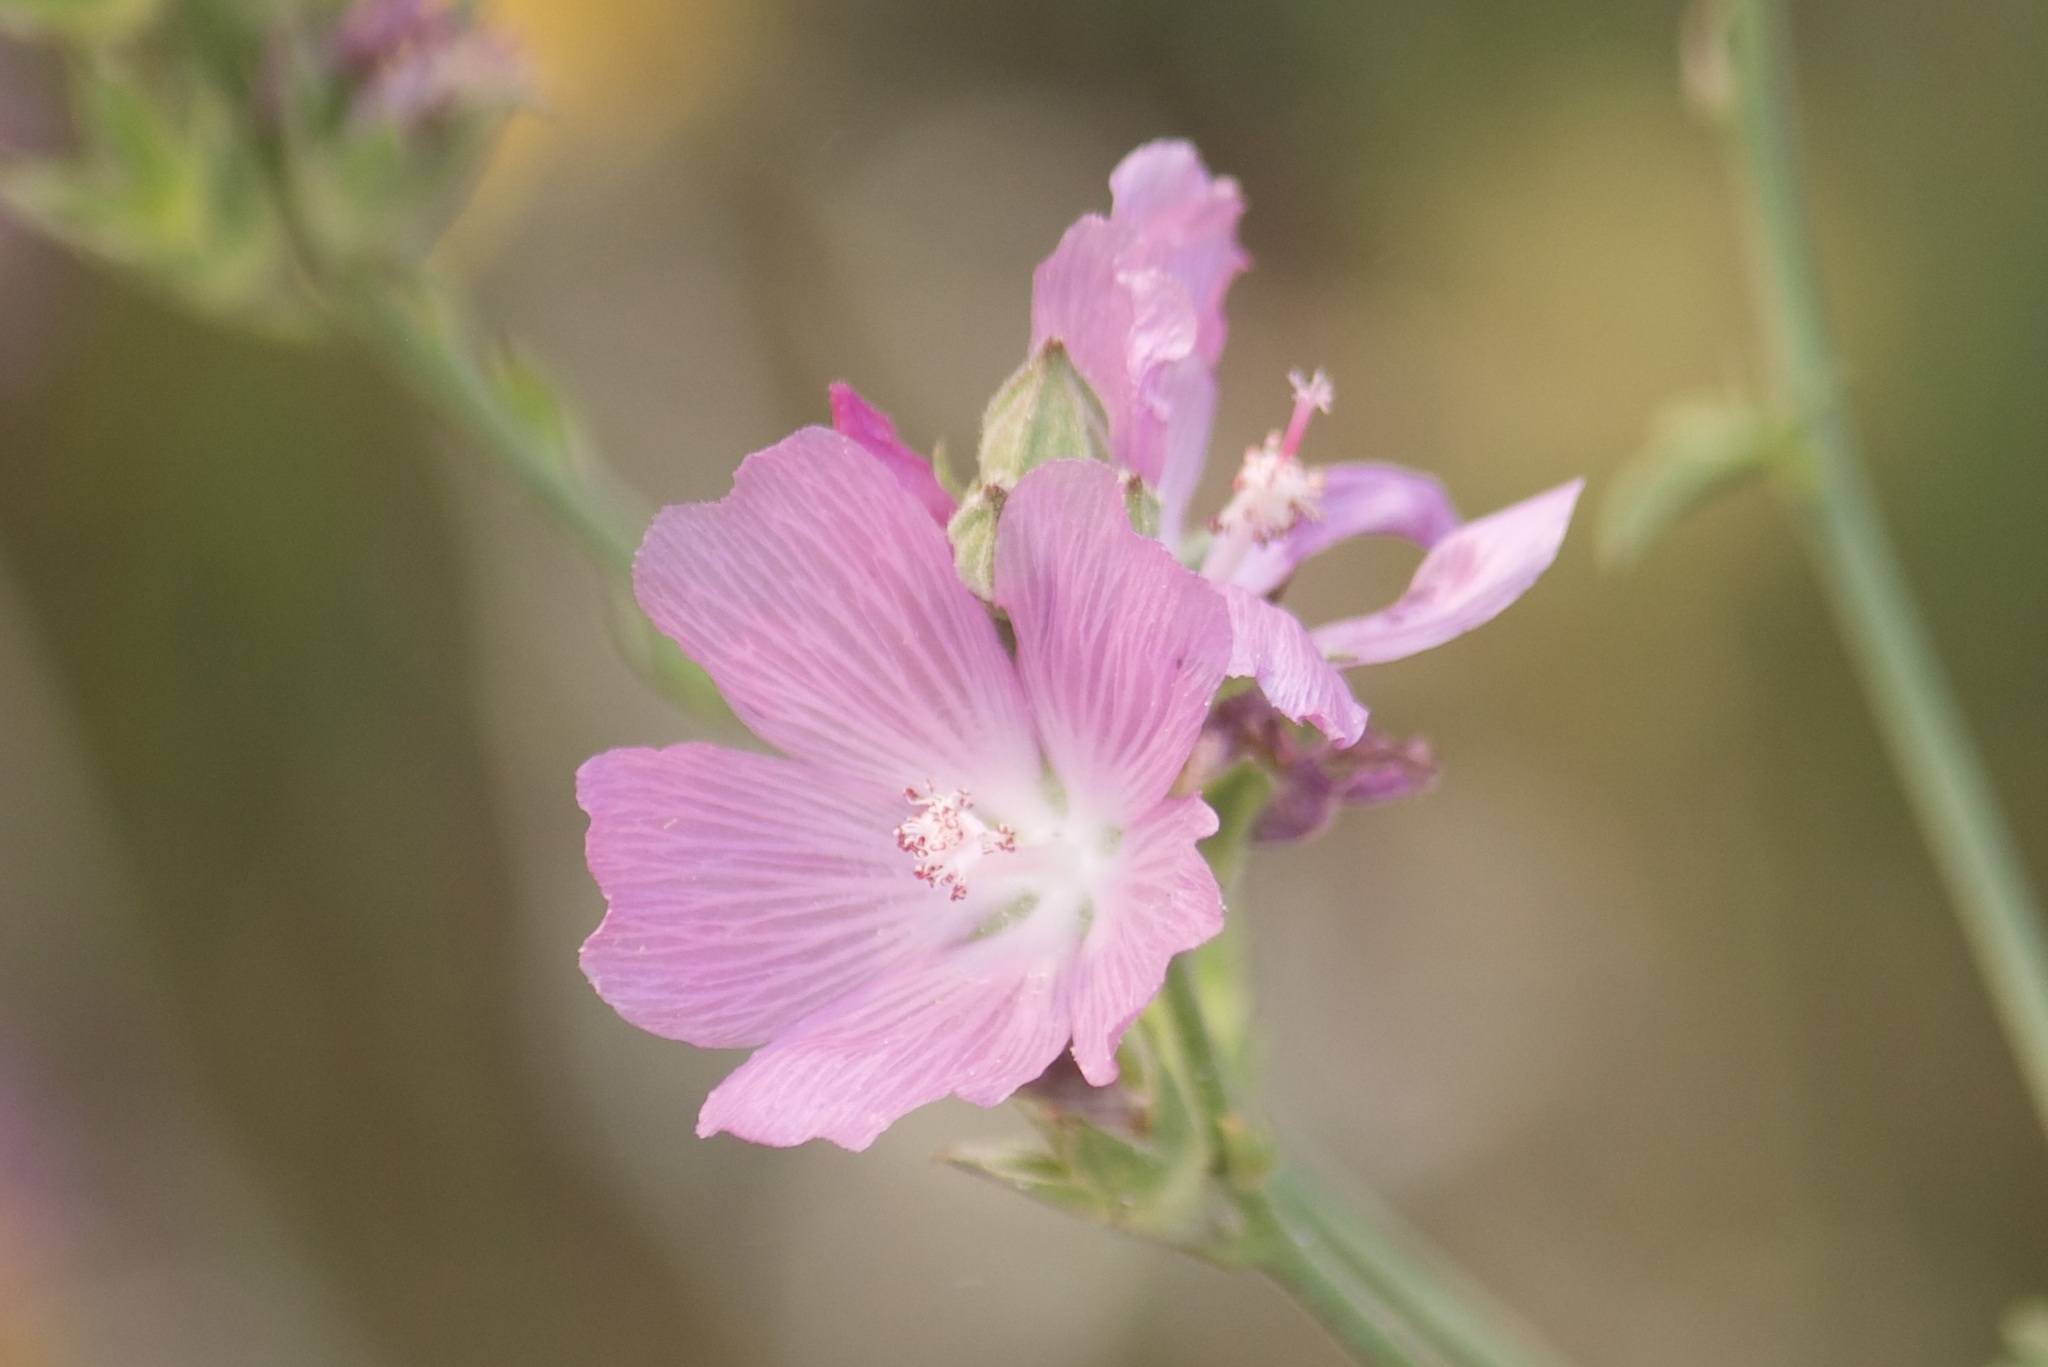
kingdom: Plantae
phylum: Tracheophyta
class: Magnoliopsida
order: Malvales
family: Malvaceae
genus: Sidalcea
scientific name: Sidalcea oregana
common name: Oregon checker-mallow
